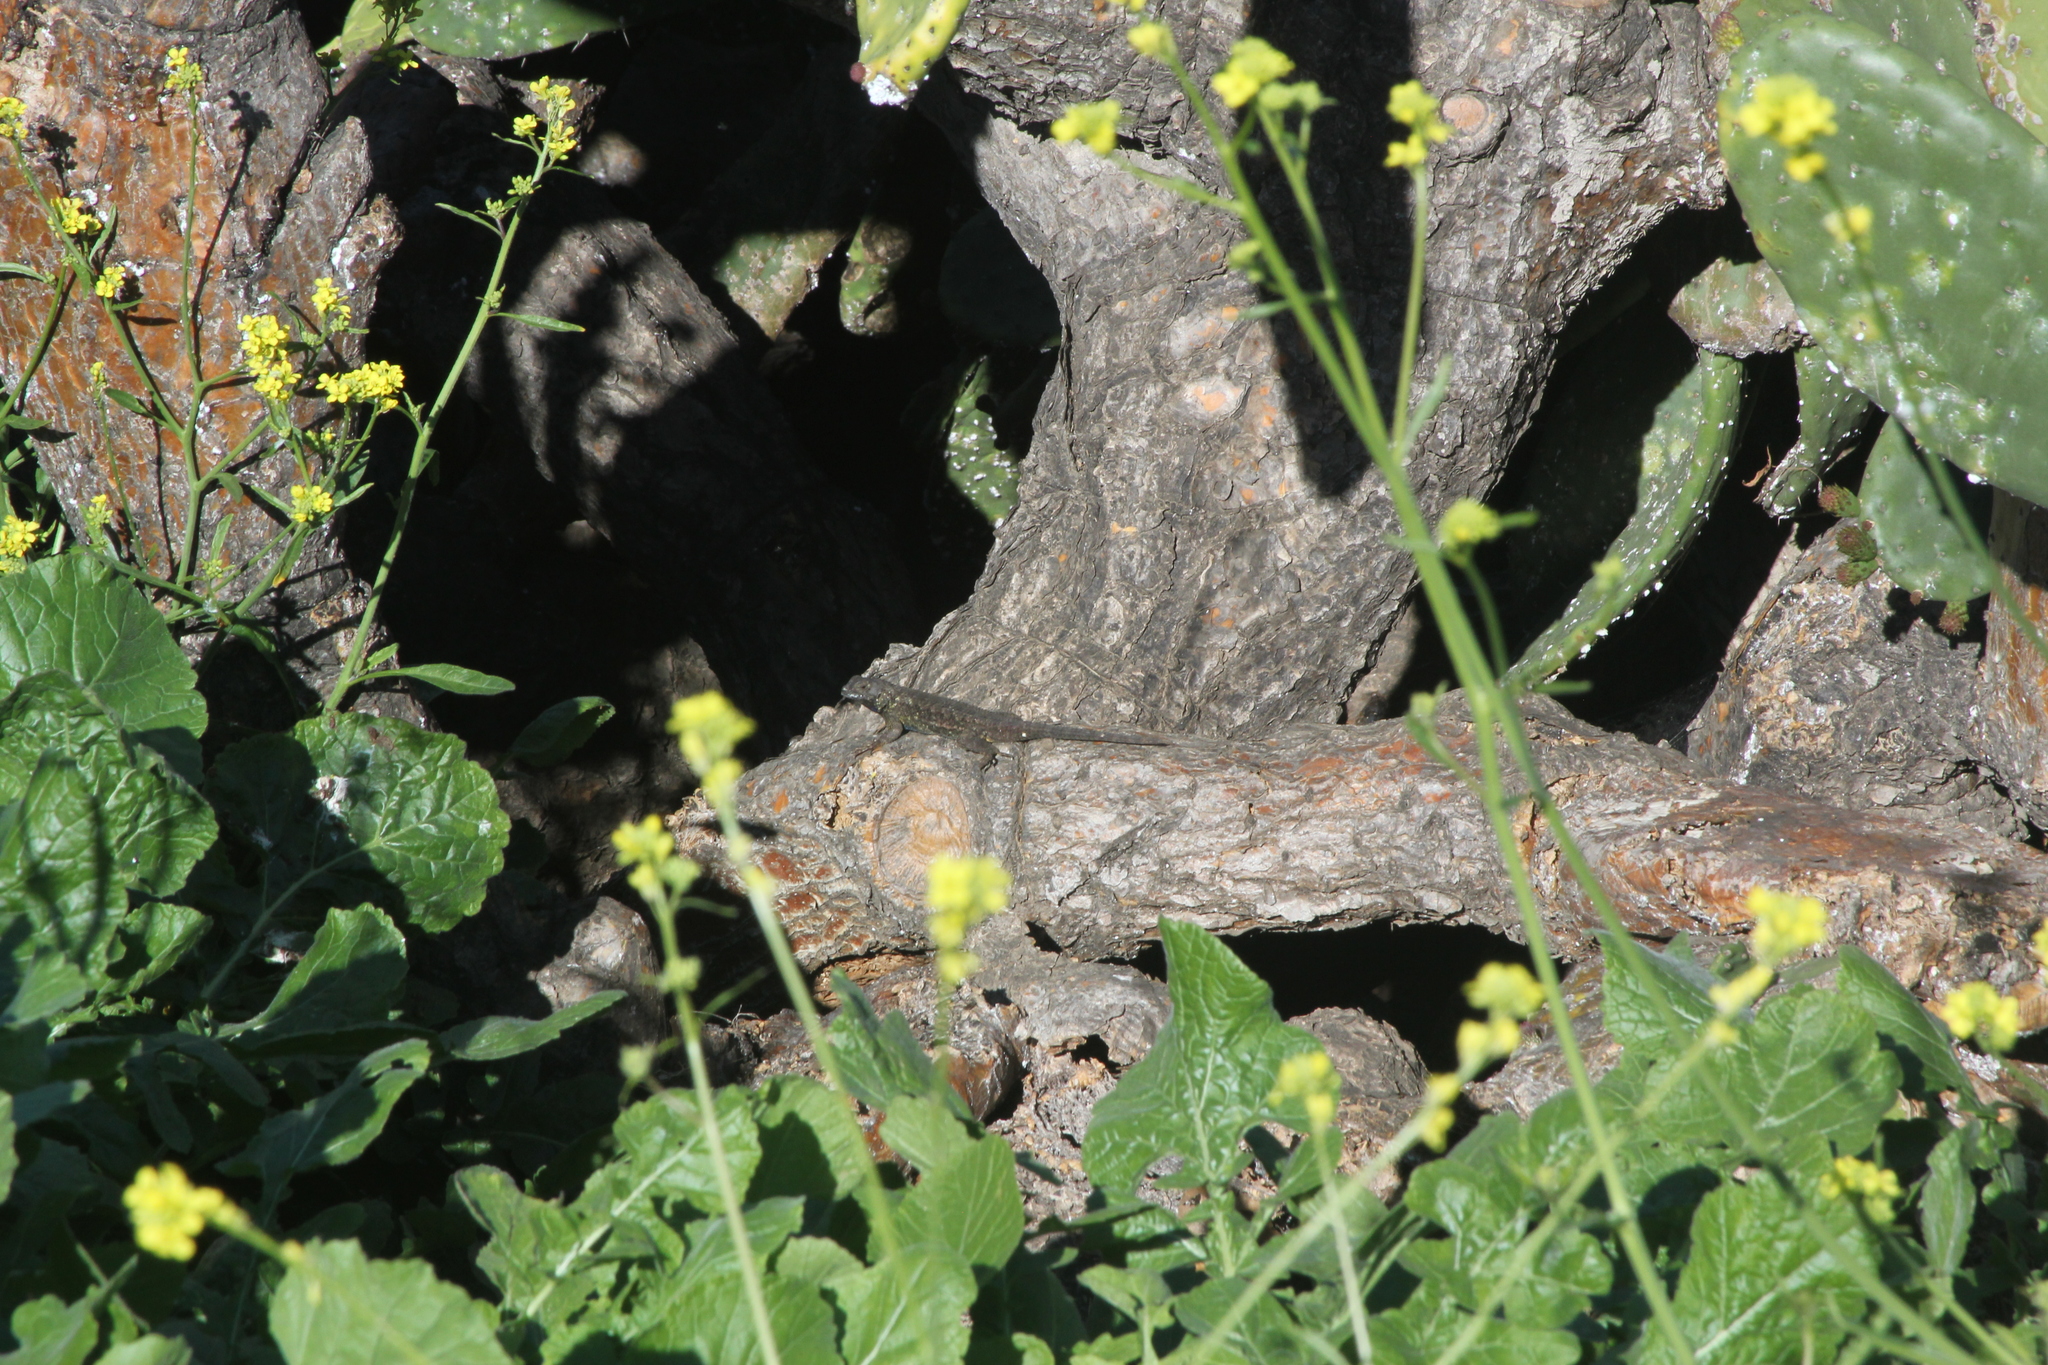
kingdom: Animalia
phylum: Chordata
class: Squamata
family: Phrynosomatidae
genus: Sceloporus
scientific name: Sceloporus occidentalis
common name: Western fence lizard
